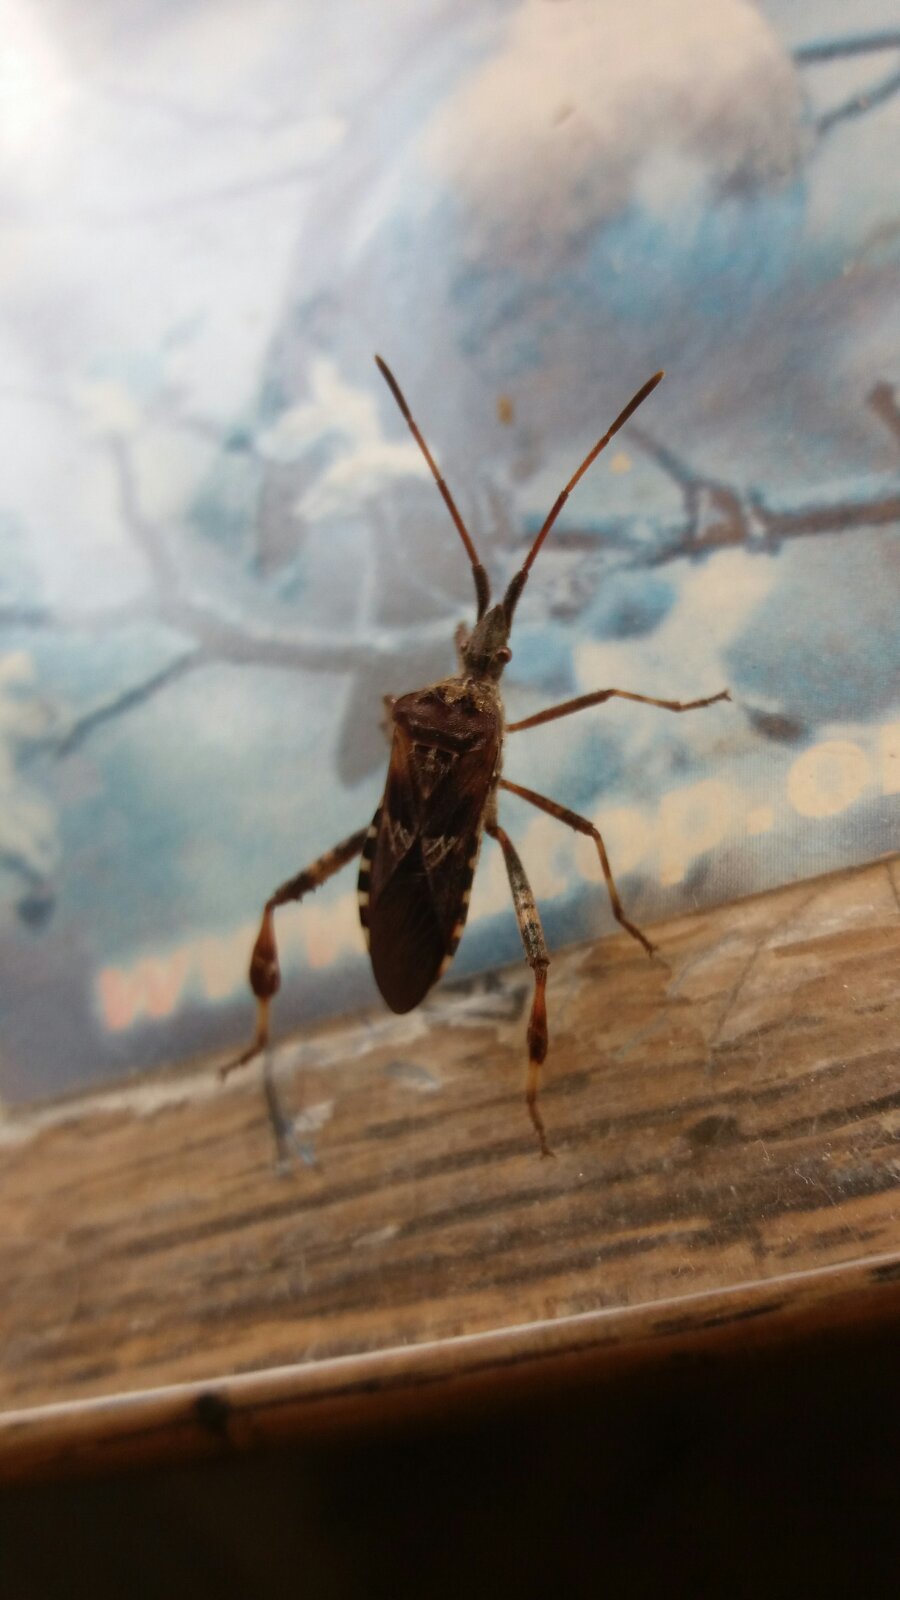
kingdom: Animalia
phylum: Arthropoda
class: Insecta
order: Hemiptera
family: Coreidae
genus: Leptoglossus
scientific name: Leptoglossus occidentalis
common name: Western conifer-seed bug
